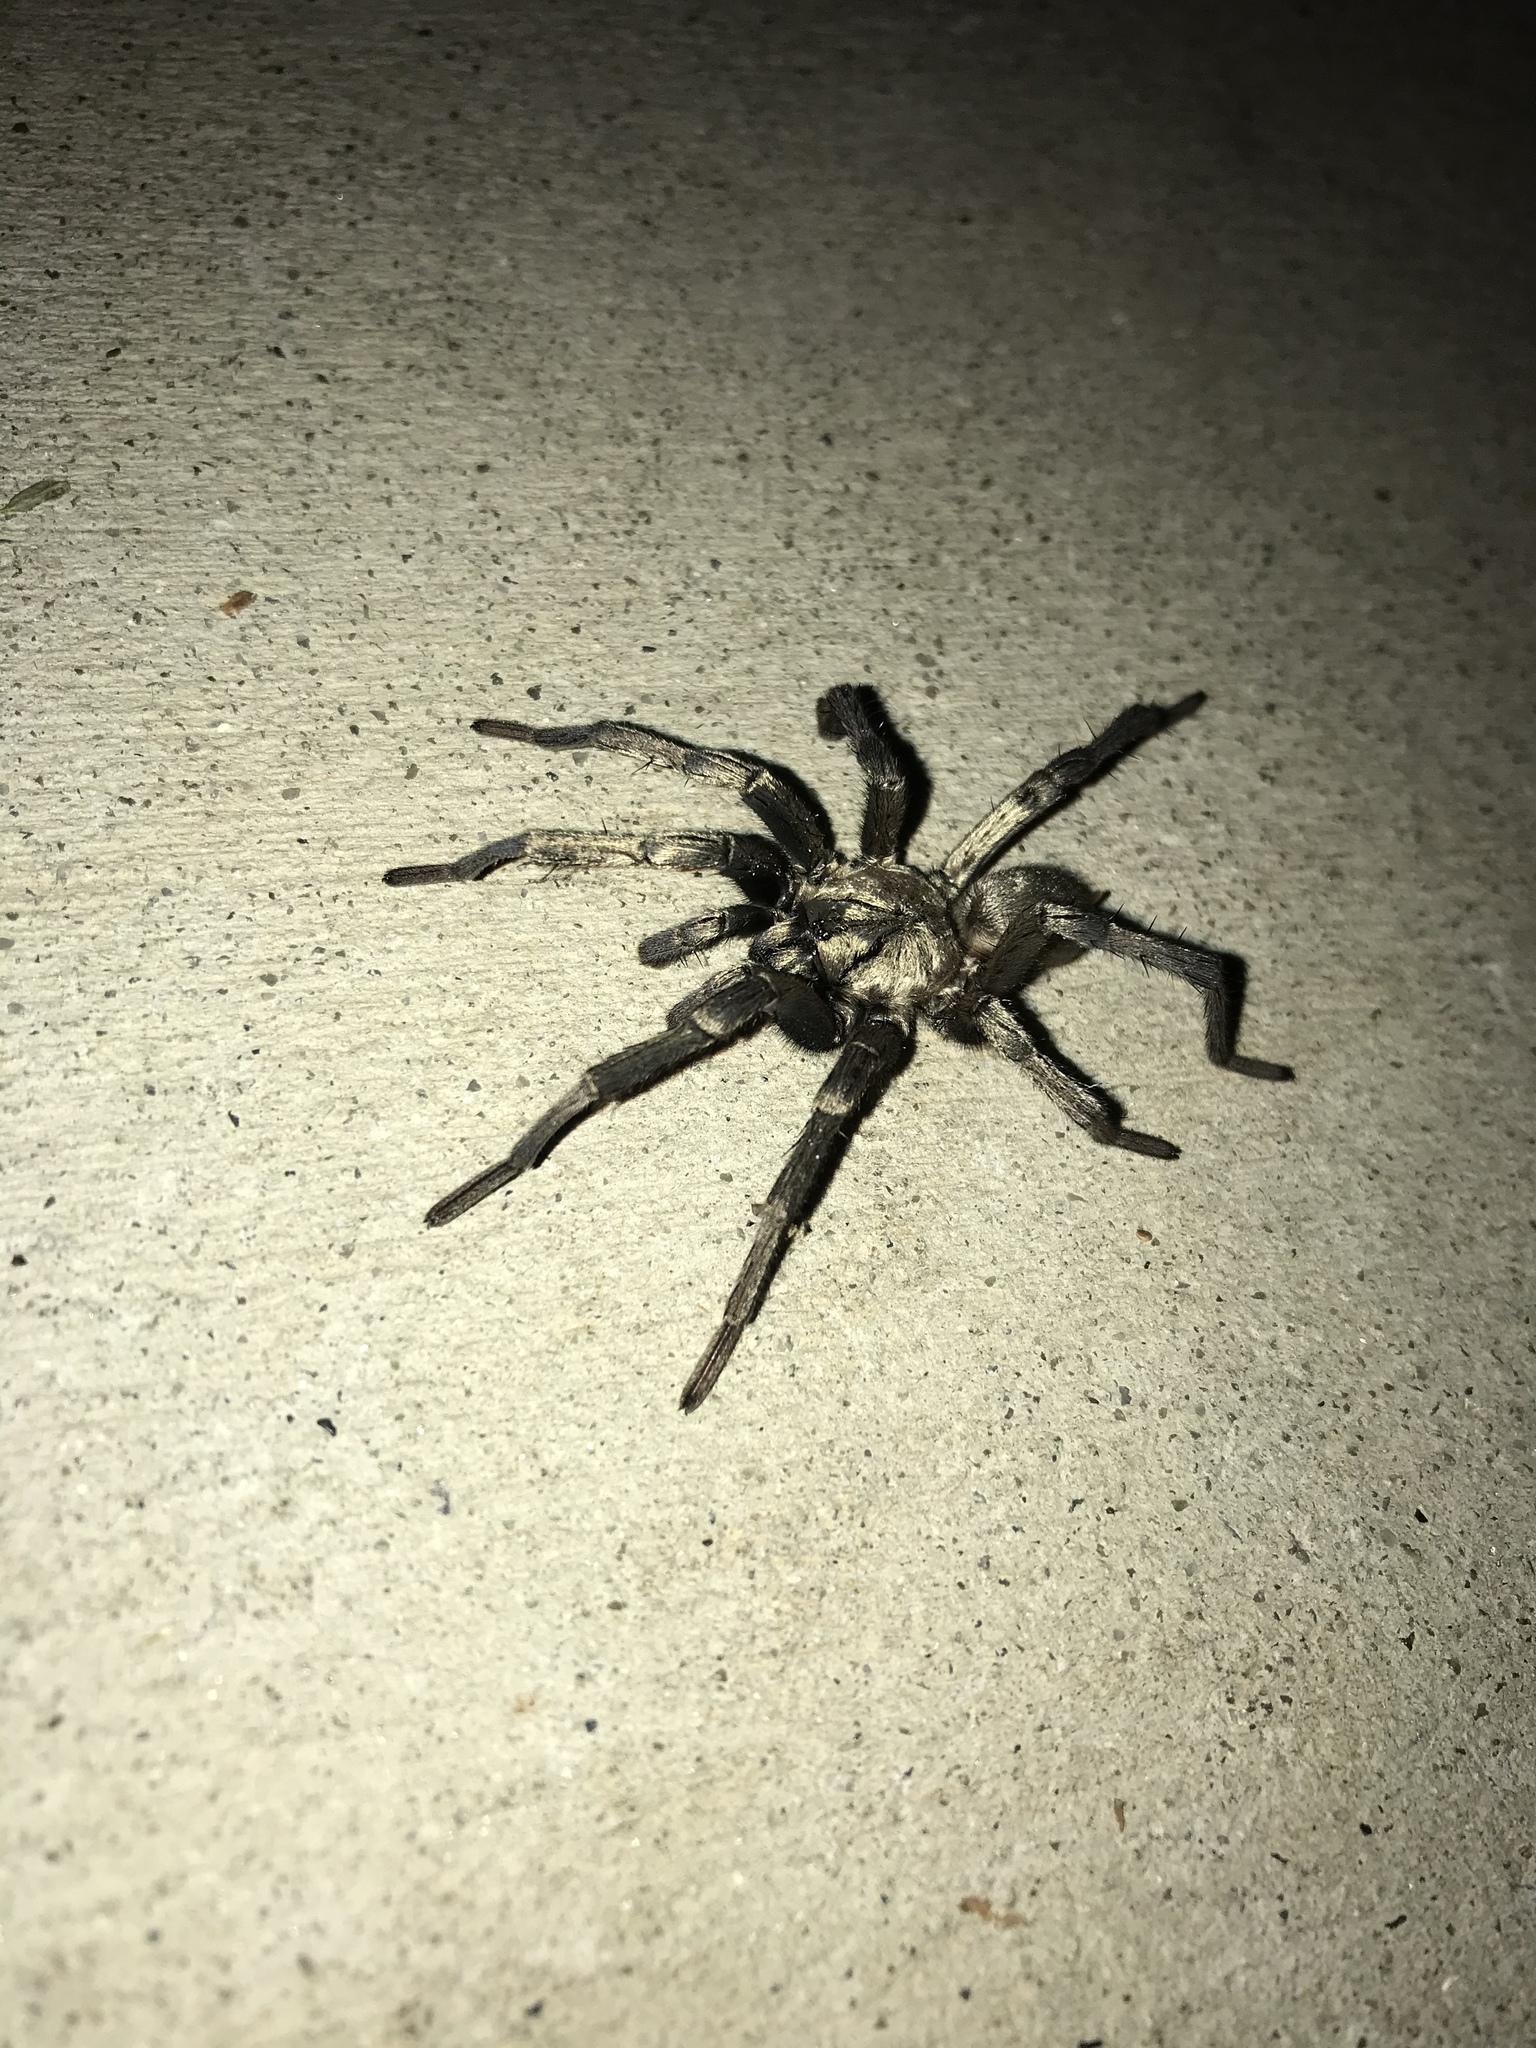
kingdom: Animalia
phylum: Arthropoda
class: Arachnida
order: Araneae
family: Nemesiidae
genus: Calisoga
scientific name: Calisoga longitarsis
